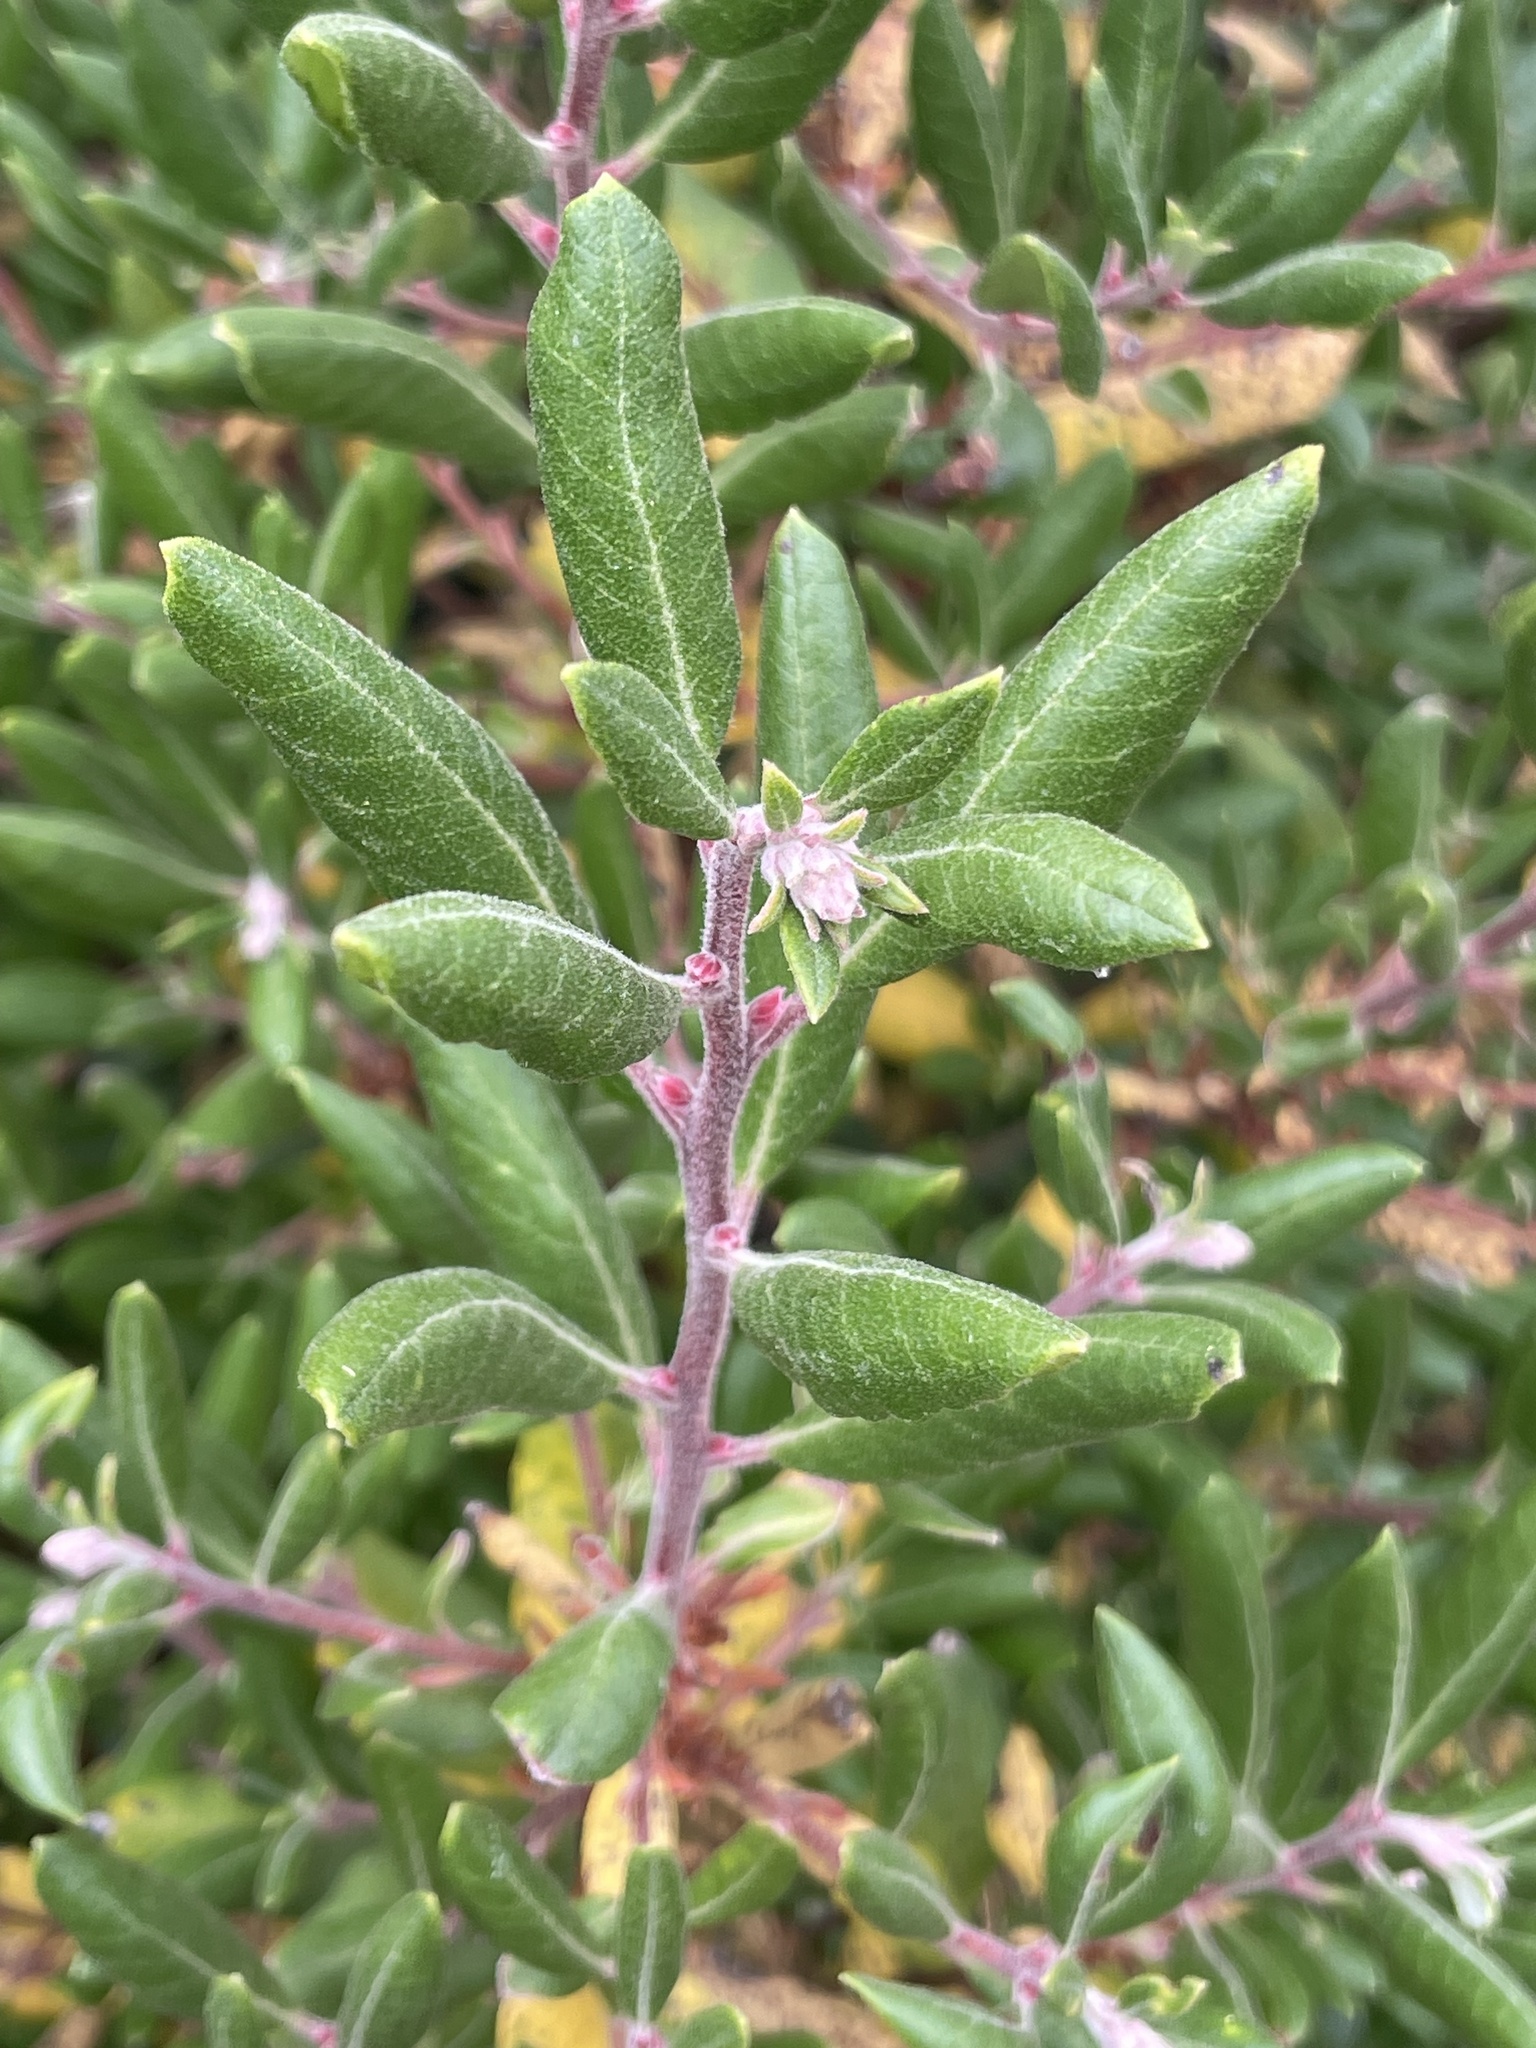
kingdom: Plantae
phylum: Tracheophyta
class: Magnoliopsida
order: Ericales
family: Ericaceae
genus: Arctostaphylos
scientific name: Arctostaphylos bicolor
